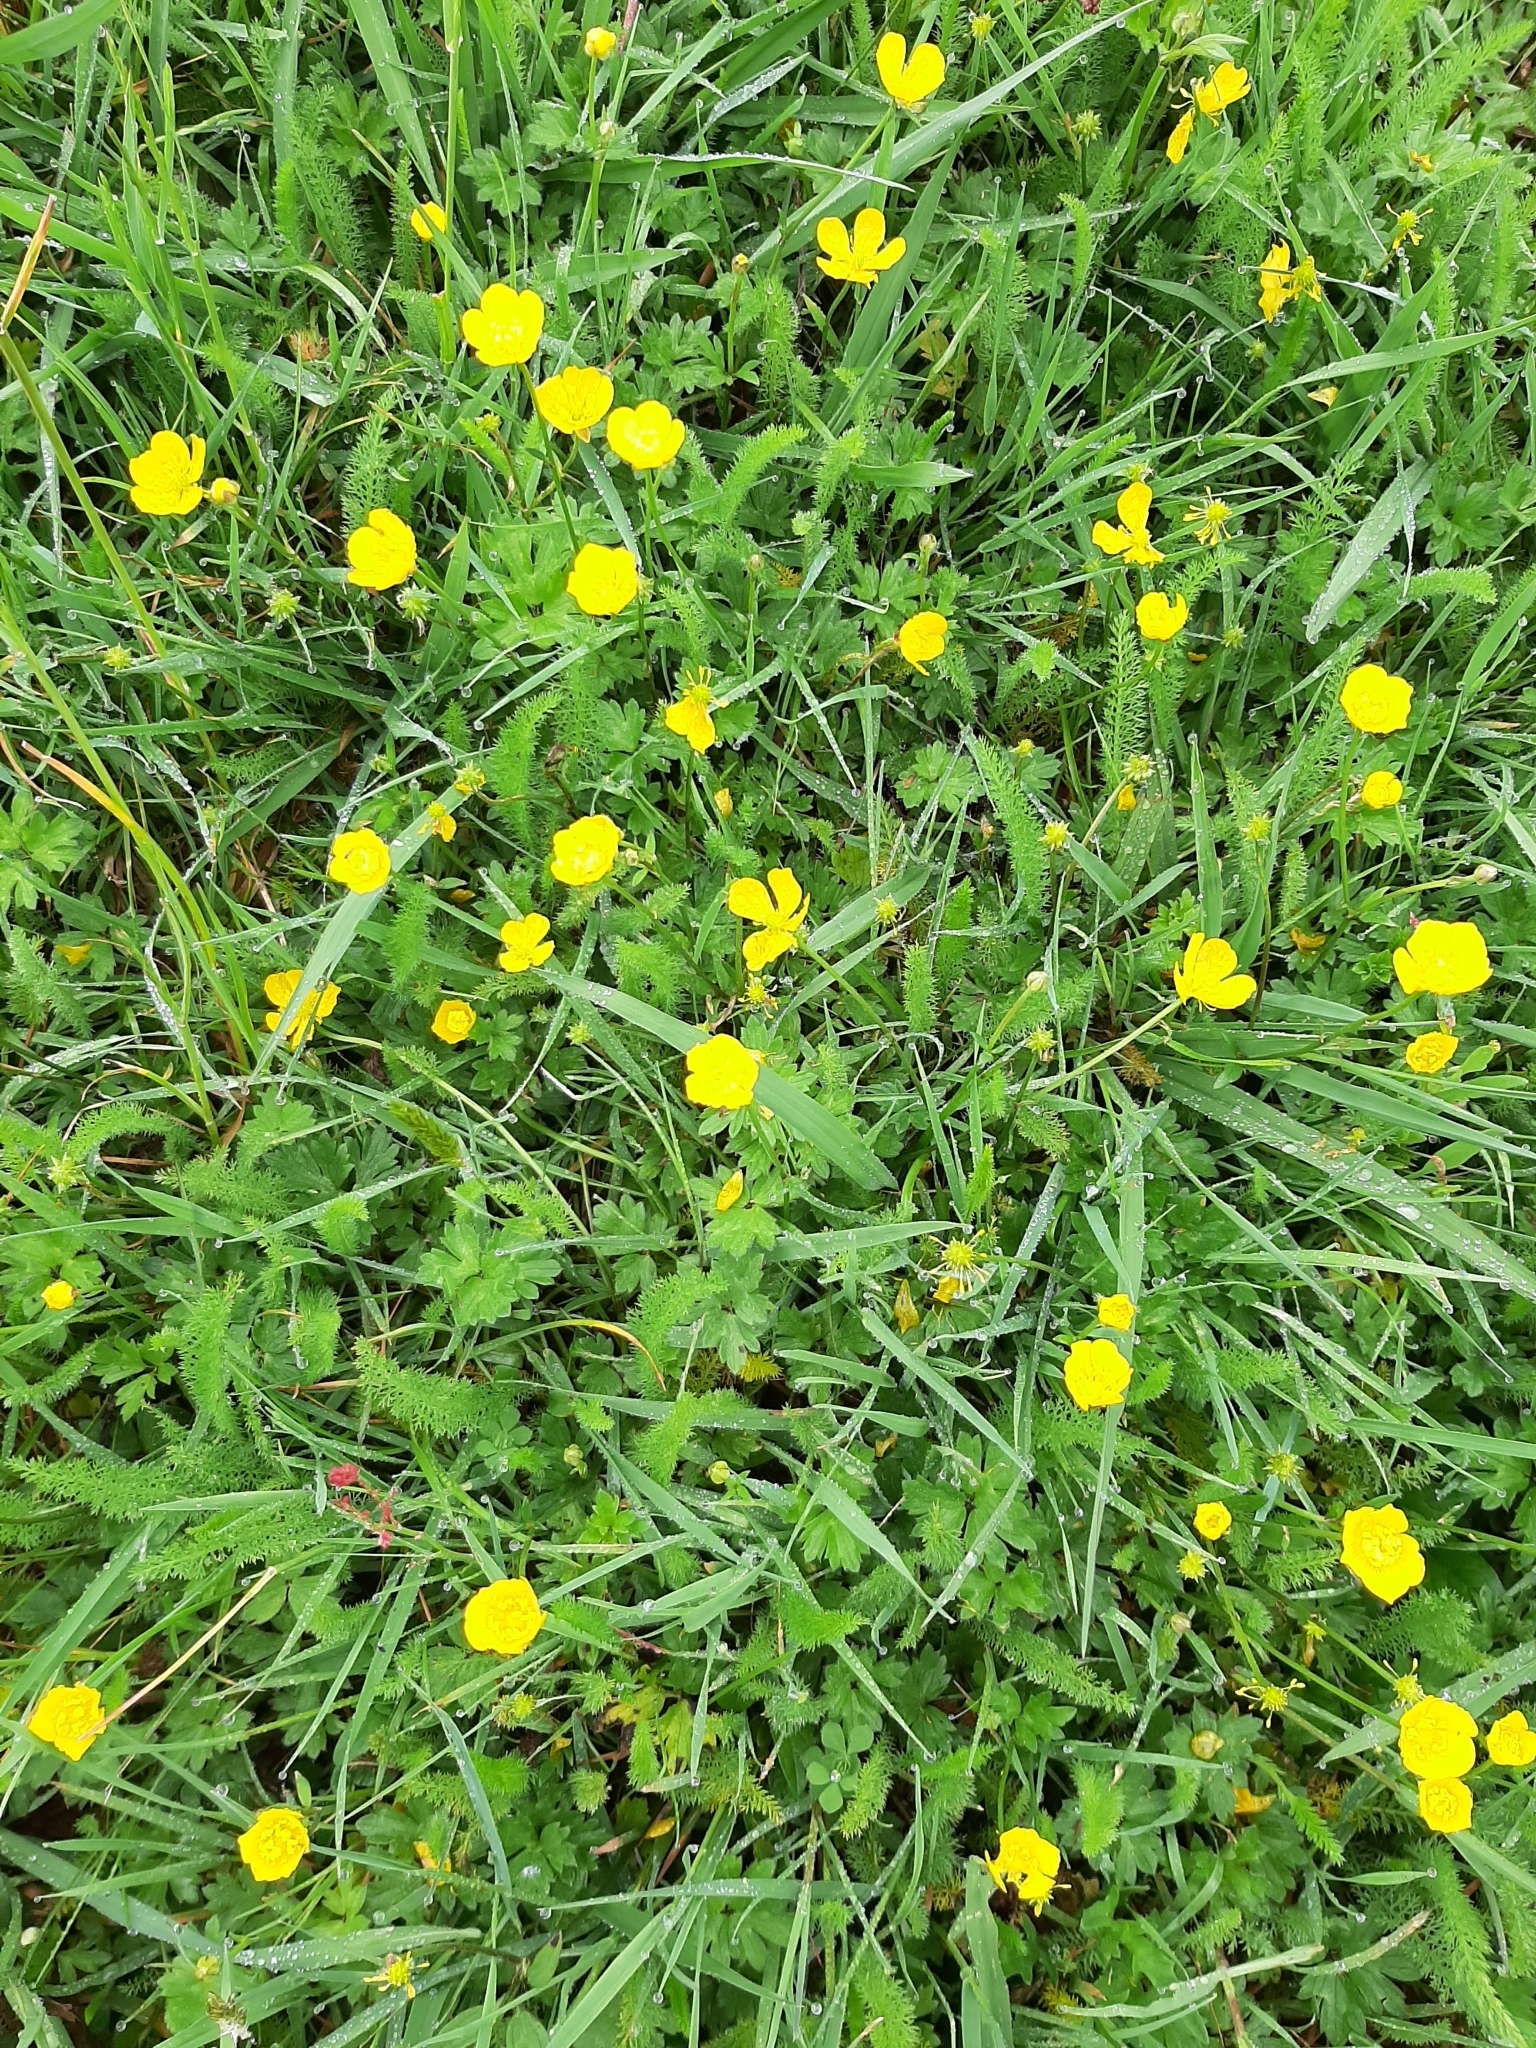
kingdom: Plantae
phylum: Tracheophyta
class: Magnoliopsida
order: Ranunculales
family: Ranunculaceae
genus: Ranunculus
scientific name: Ranunculus repens
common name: Creeping buttercup
